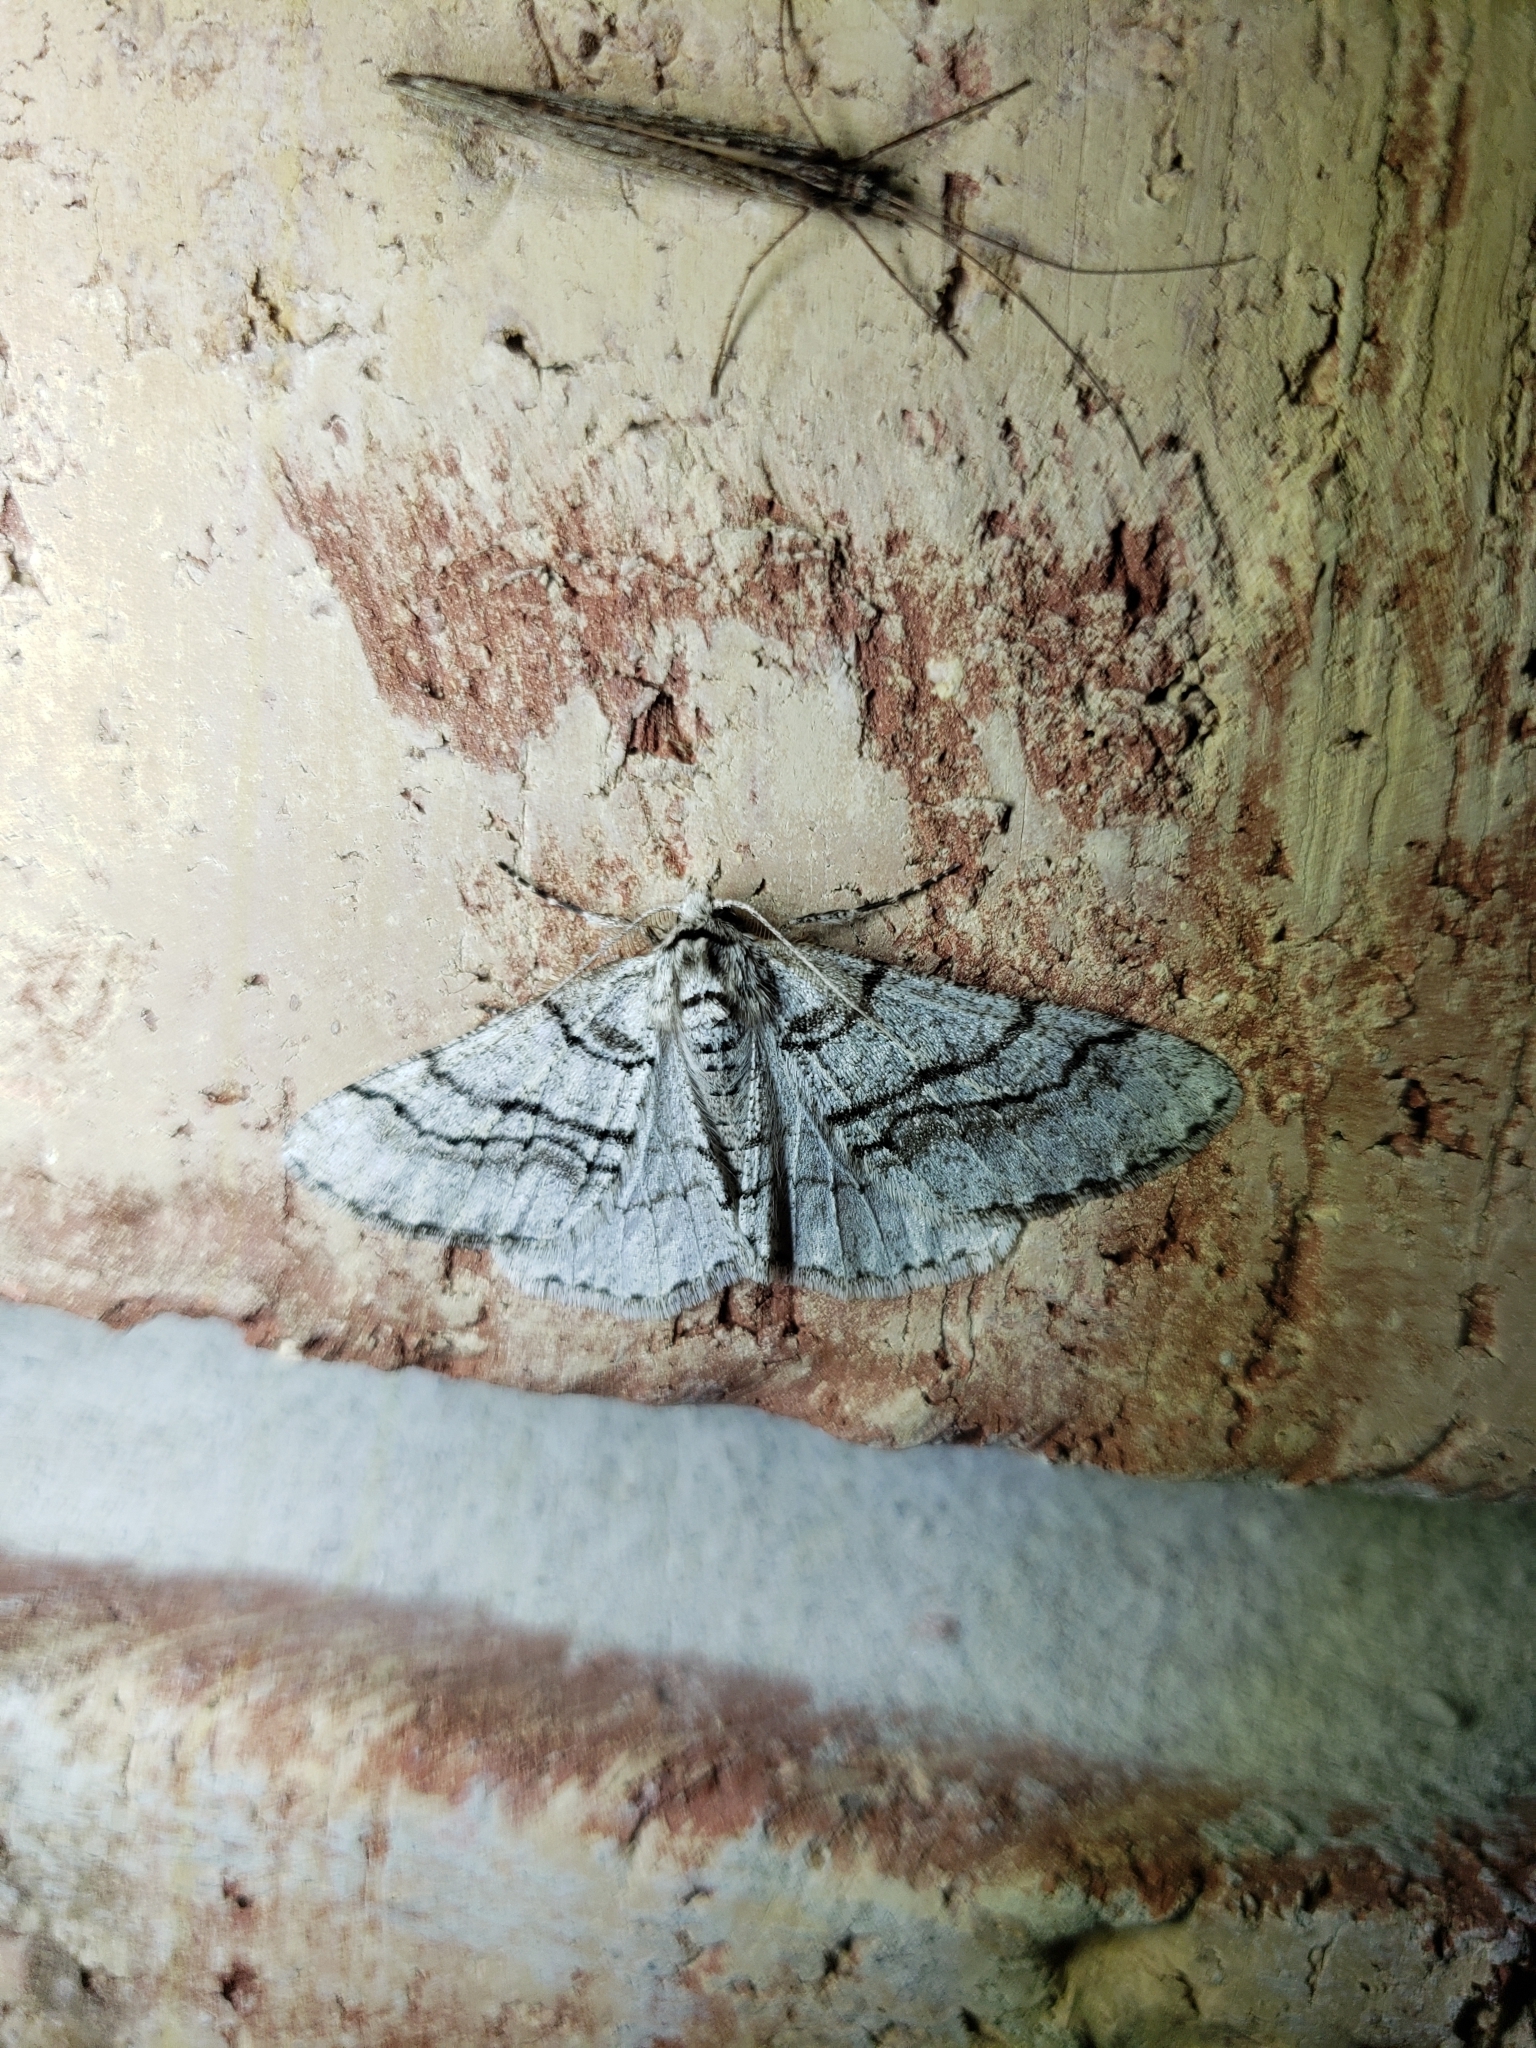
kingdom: Animalia
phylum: Arthropoda
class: Insecta
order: Lepidoptera
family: Geometridae
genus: Phigalia
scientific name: Phigalia titea
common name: Spiny looper
